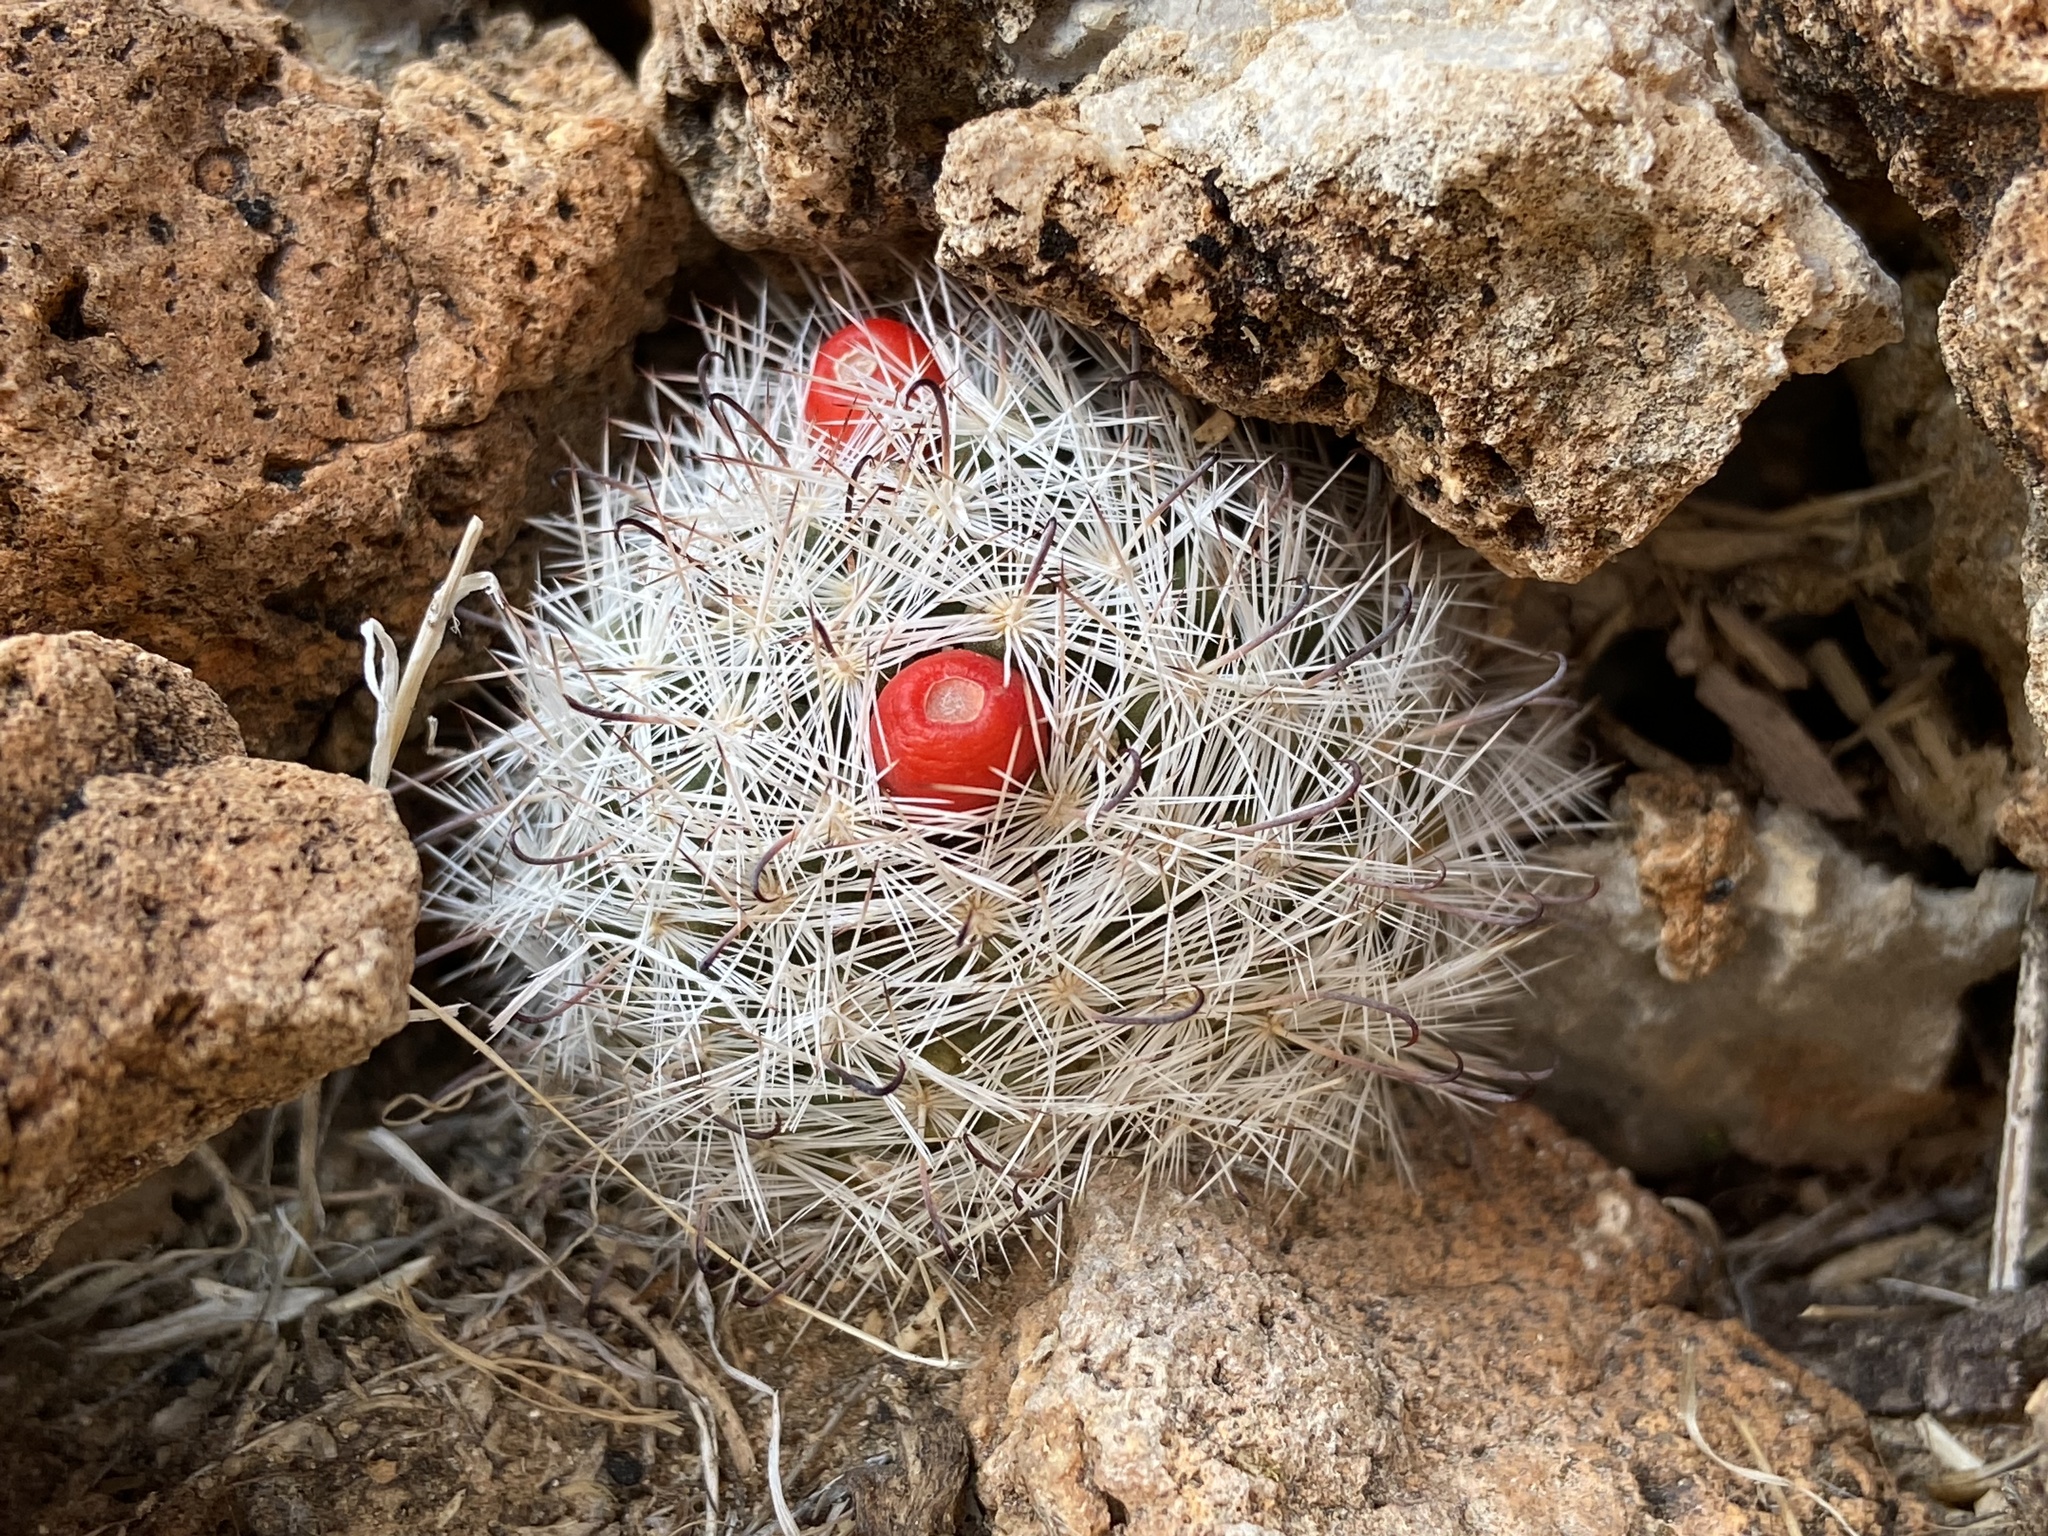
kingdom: Plantae
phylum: Tracheophyta
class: Magnoliopsida
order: Caryophyllales
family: Cactaceae
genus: Cochemiea
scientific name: Cochemiea tetrancistra
